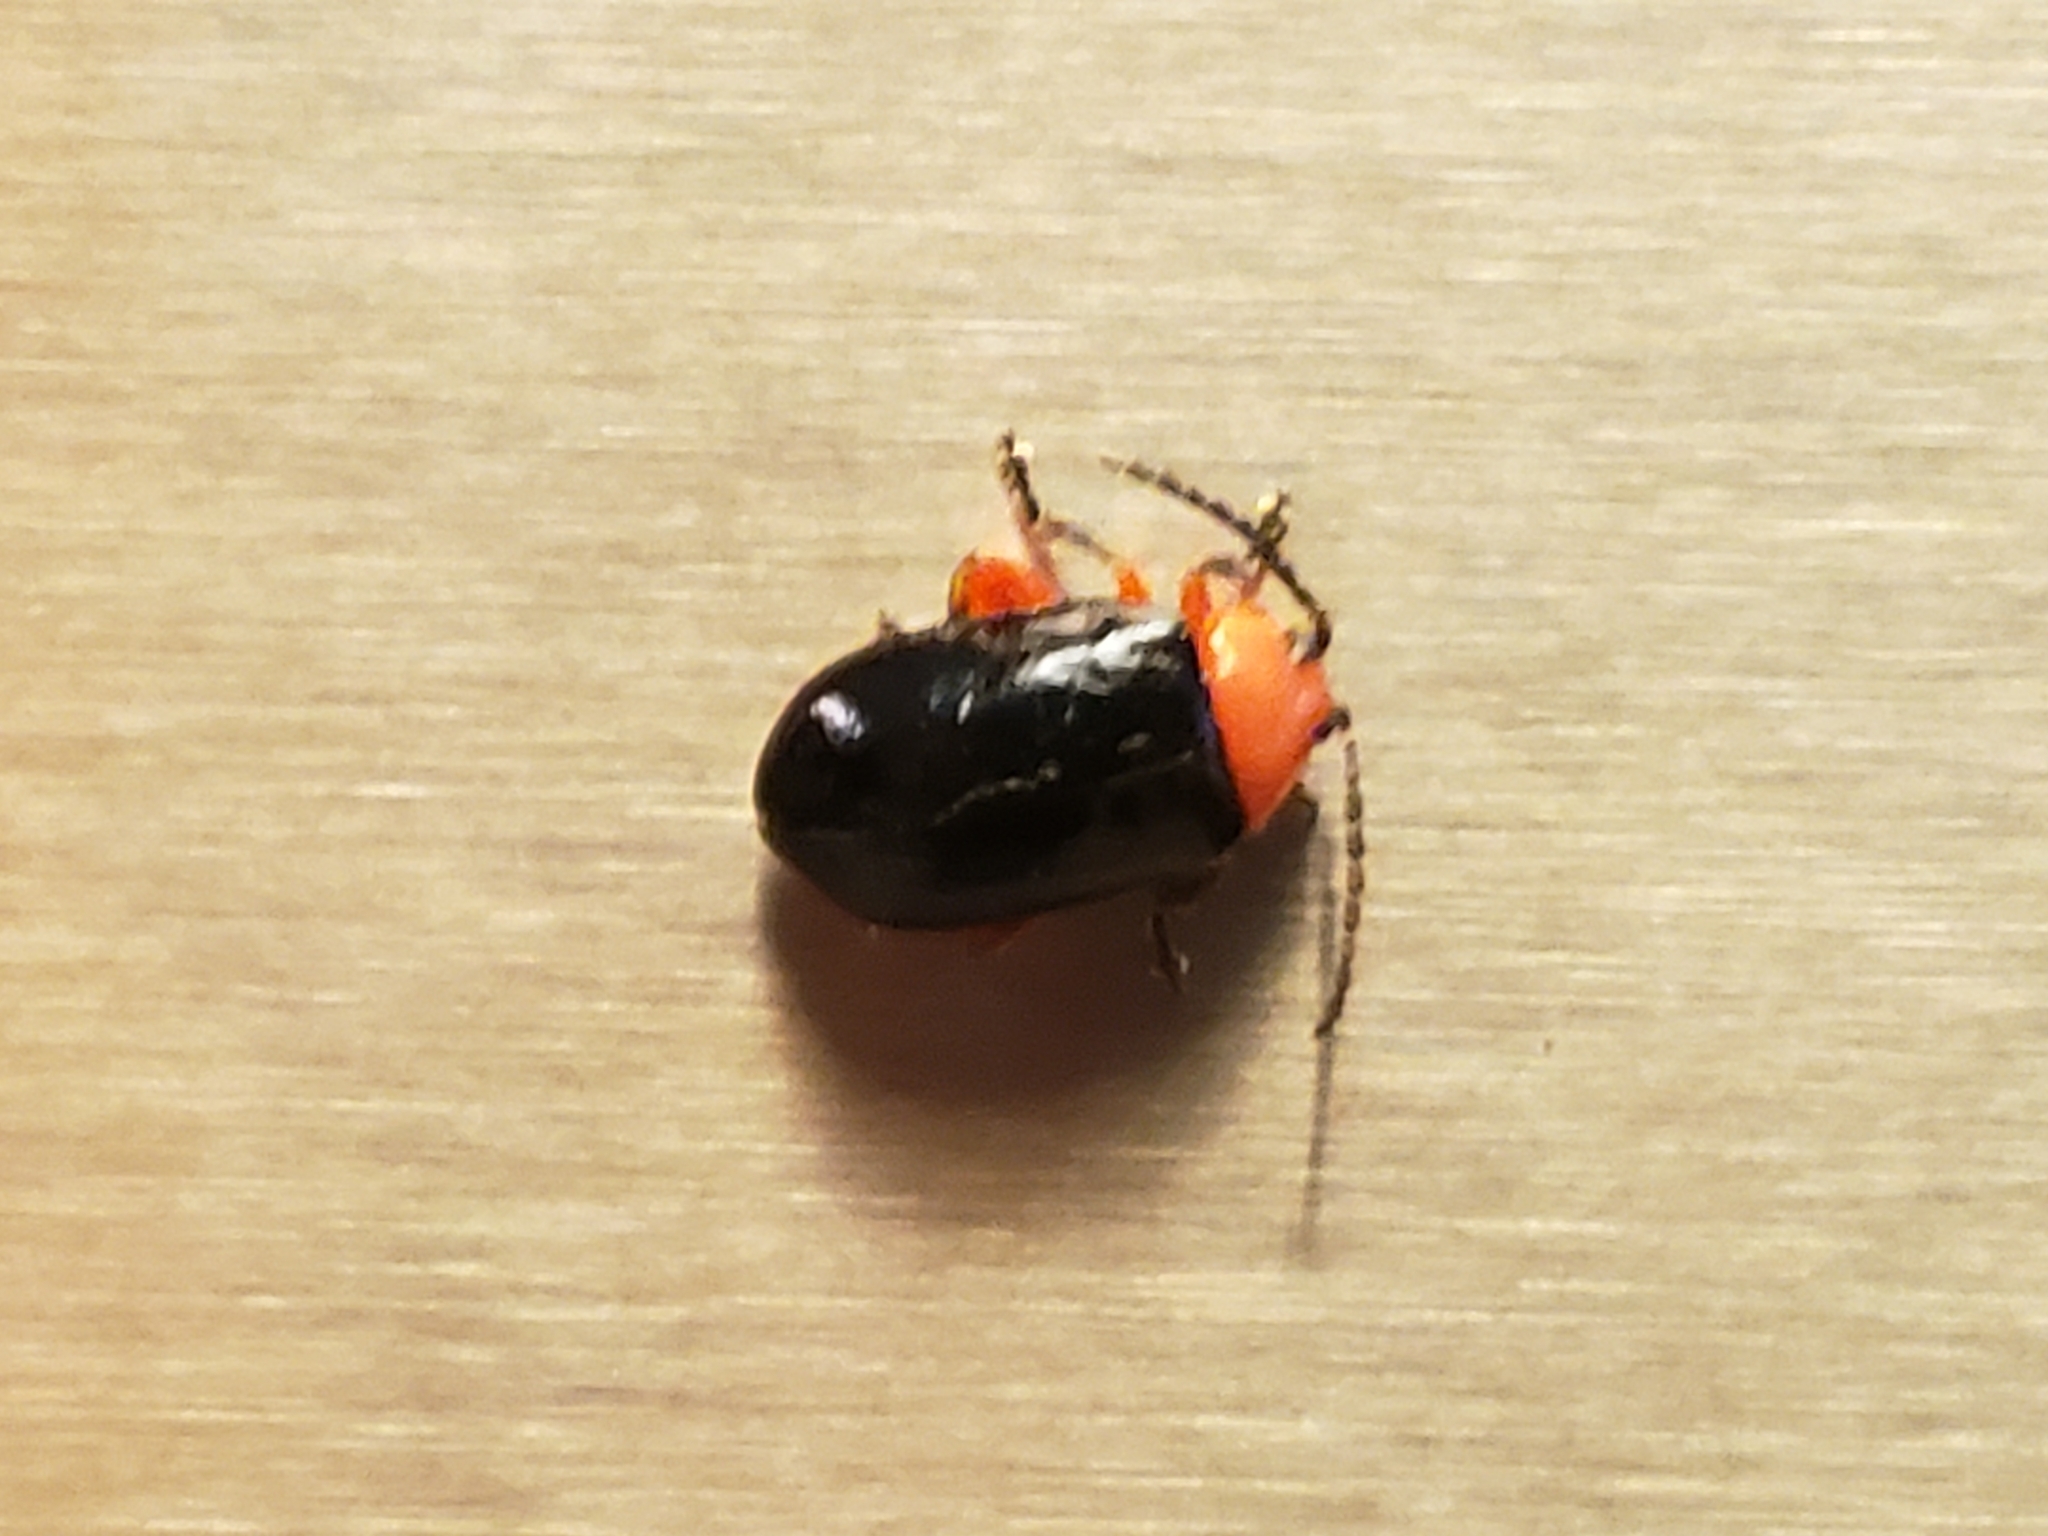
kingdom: Animalia
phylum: Arthropoda
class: Insecta
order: Coleoptera
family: Chrysomelidae
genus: Asphaera
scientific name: Asphaera lustrans
